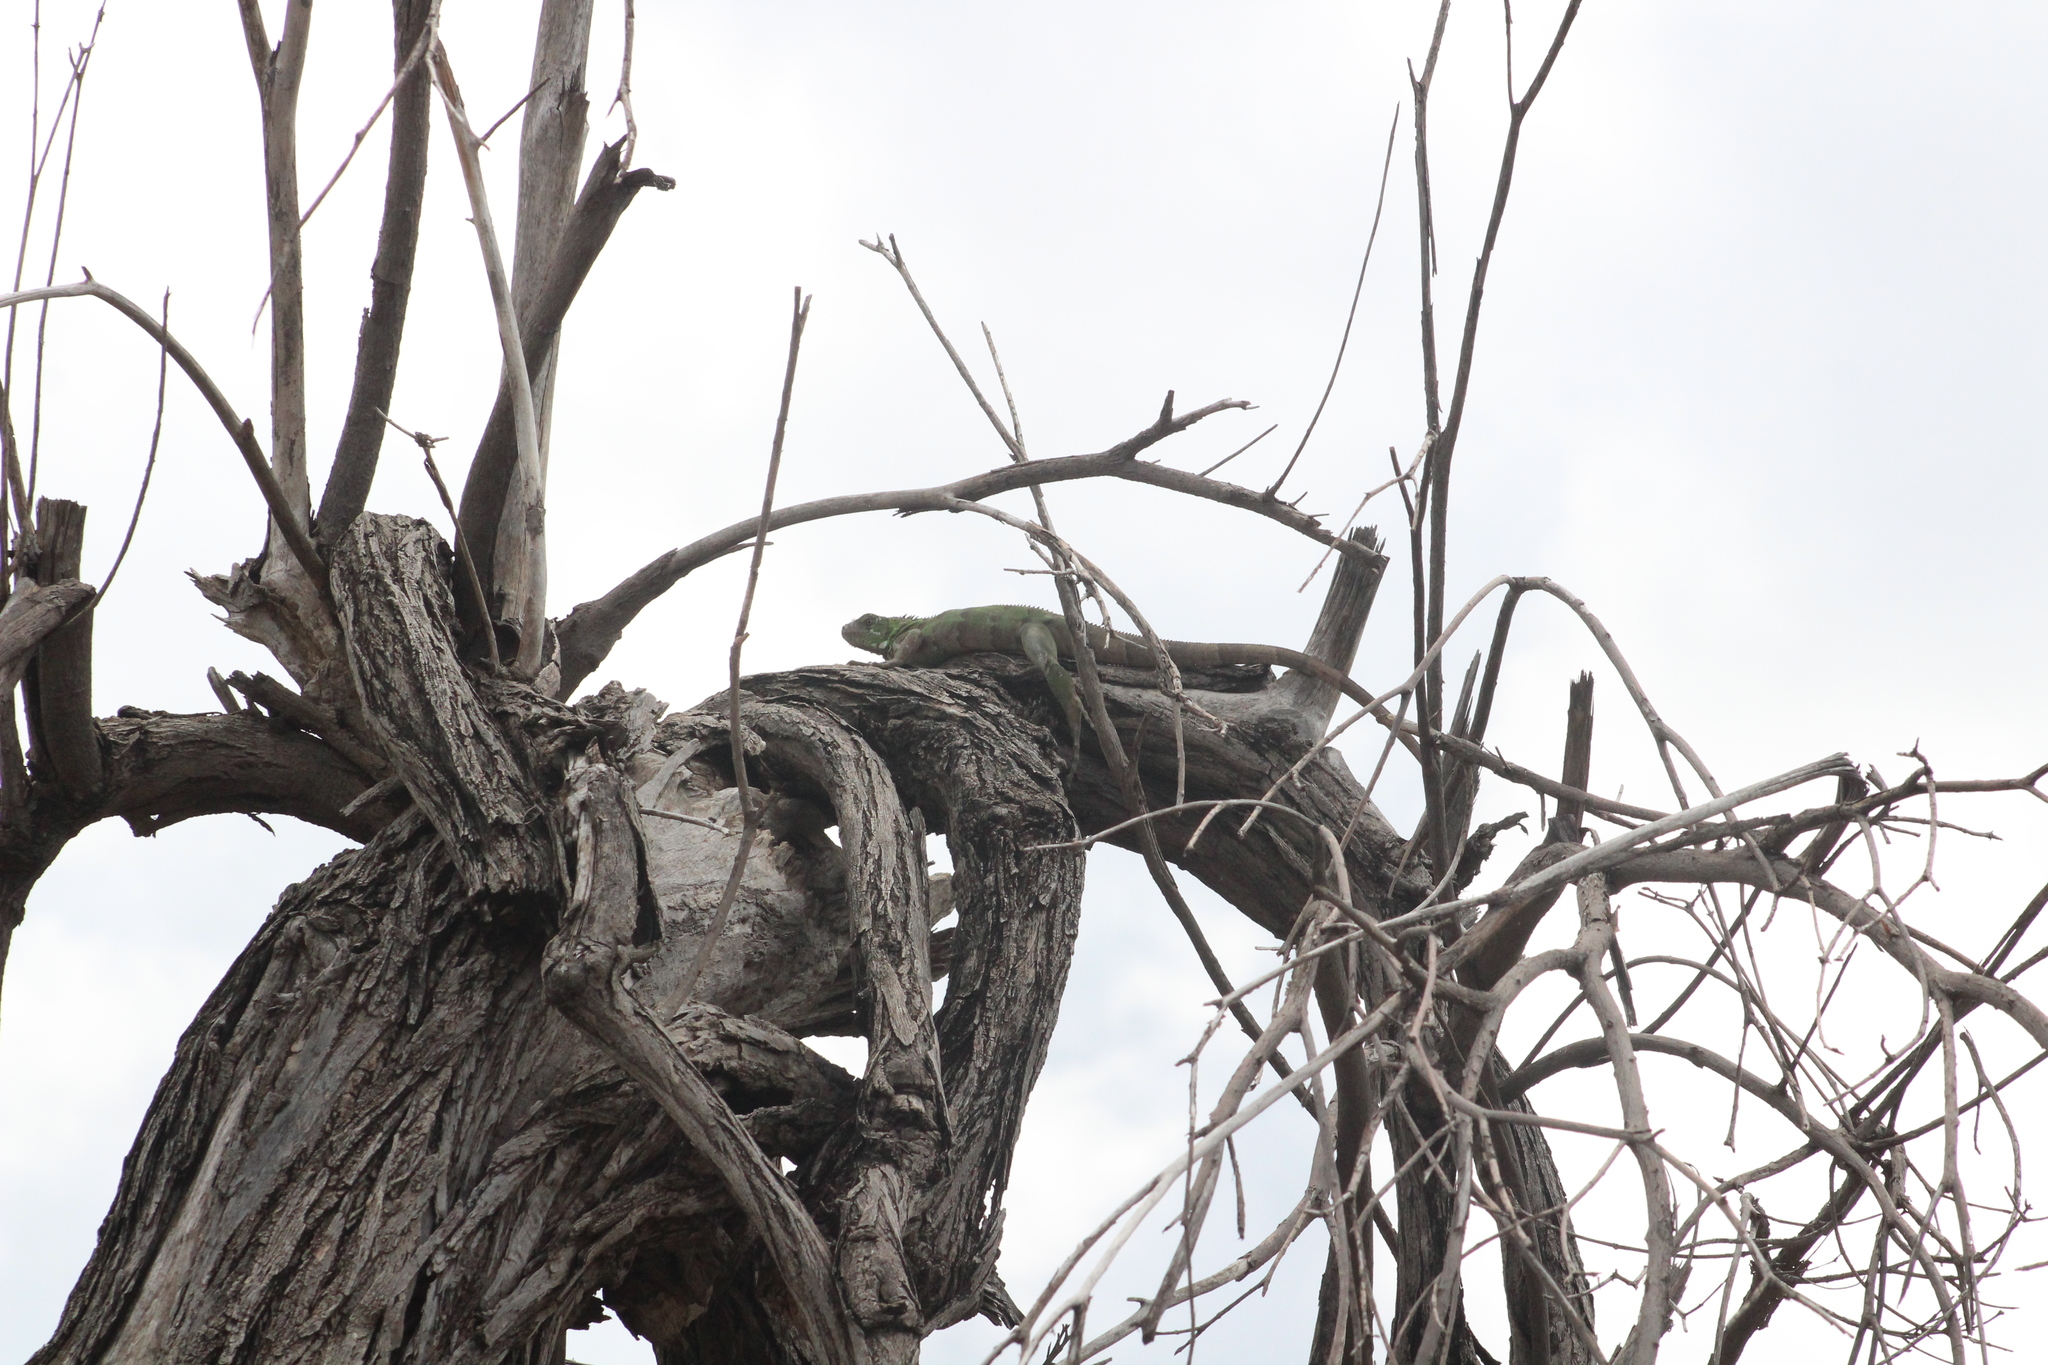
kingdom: Animalia
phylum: Chordata
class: Squamata
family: Iguanidae
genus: Iguana
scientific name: Iguana iguana
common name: Green iguana
